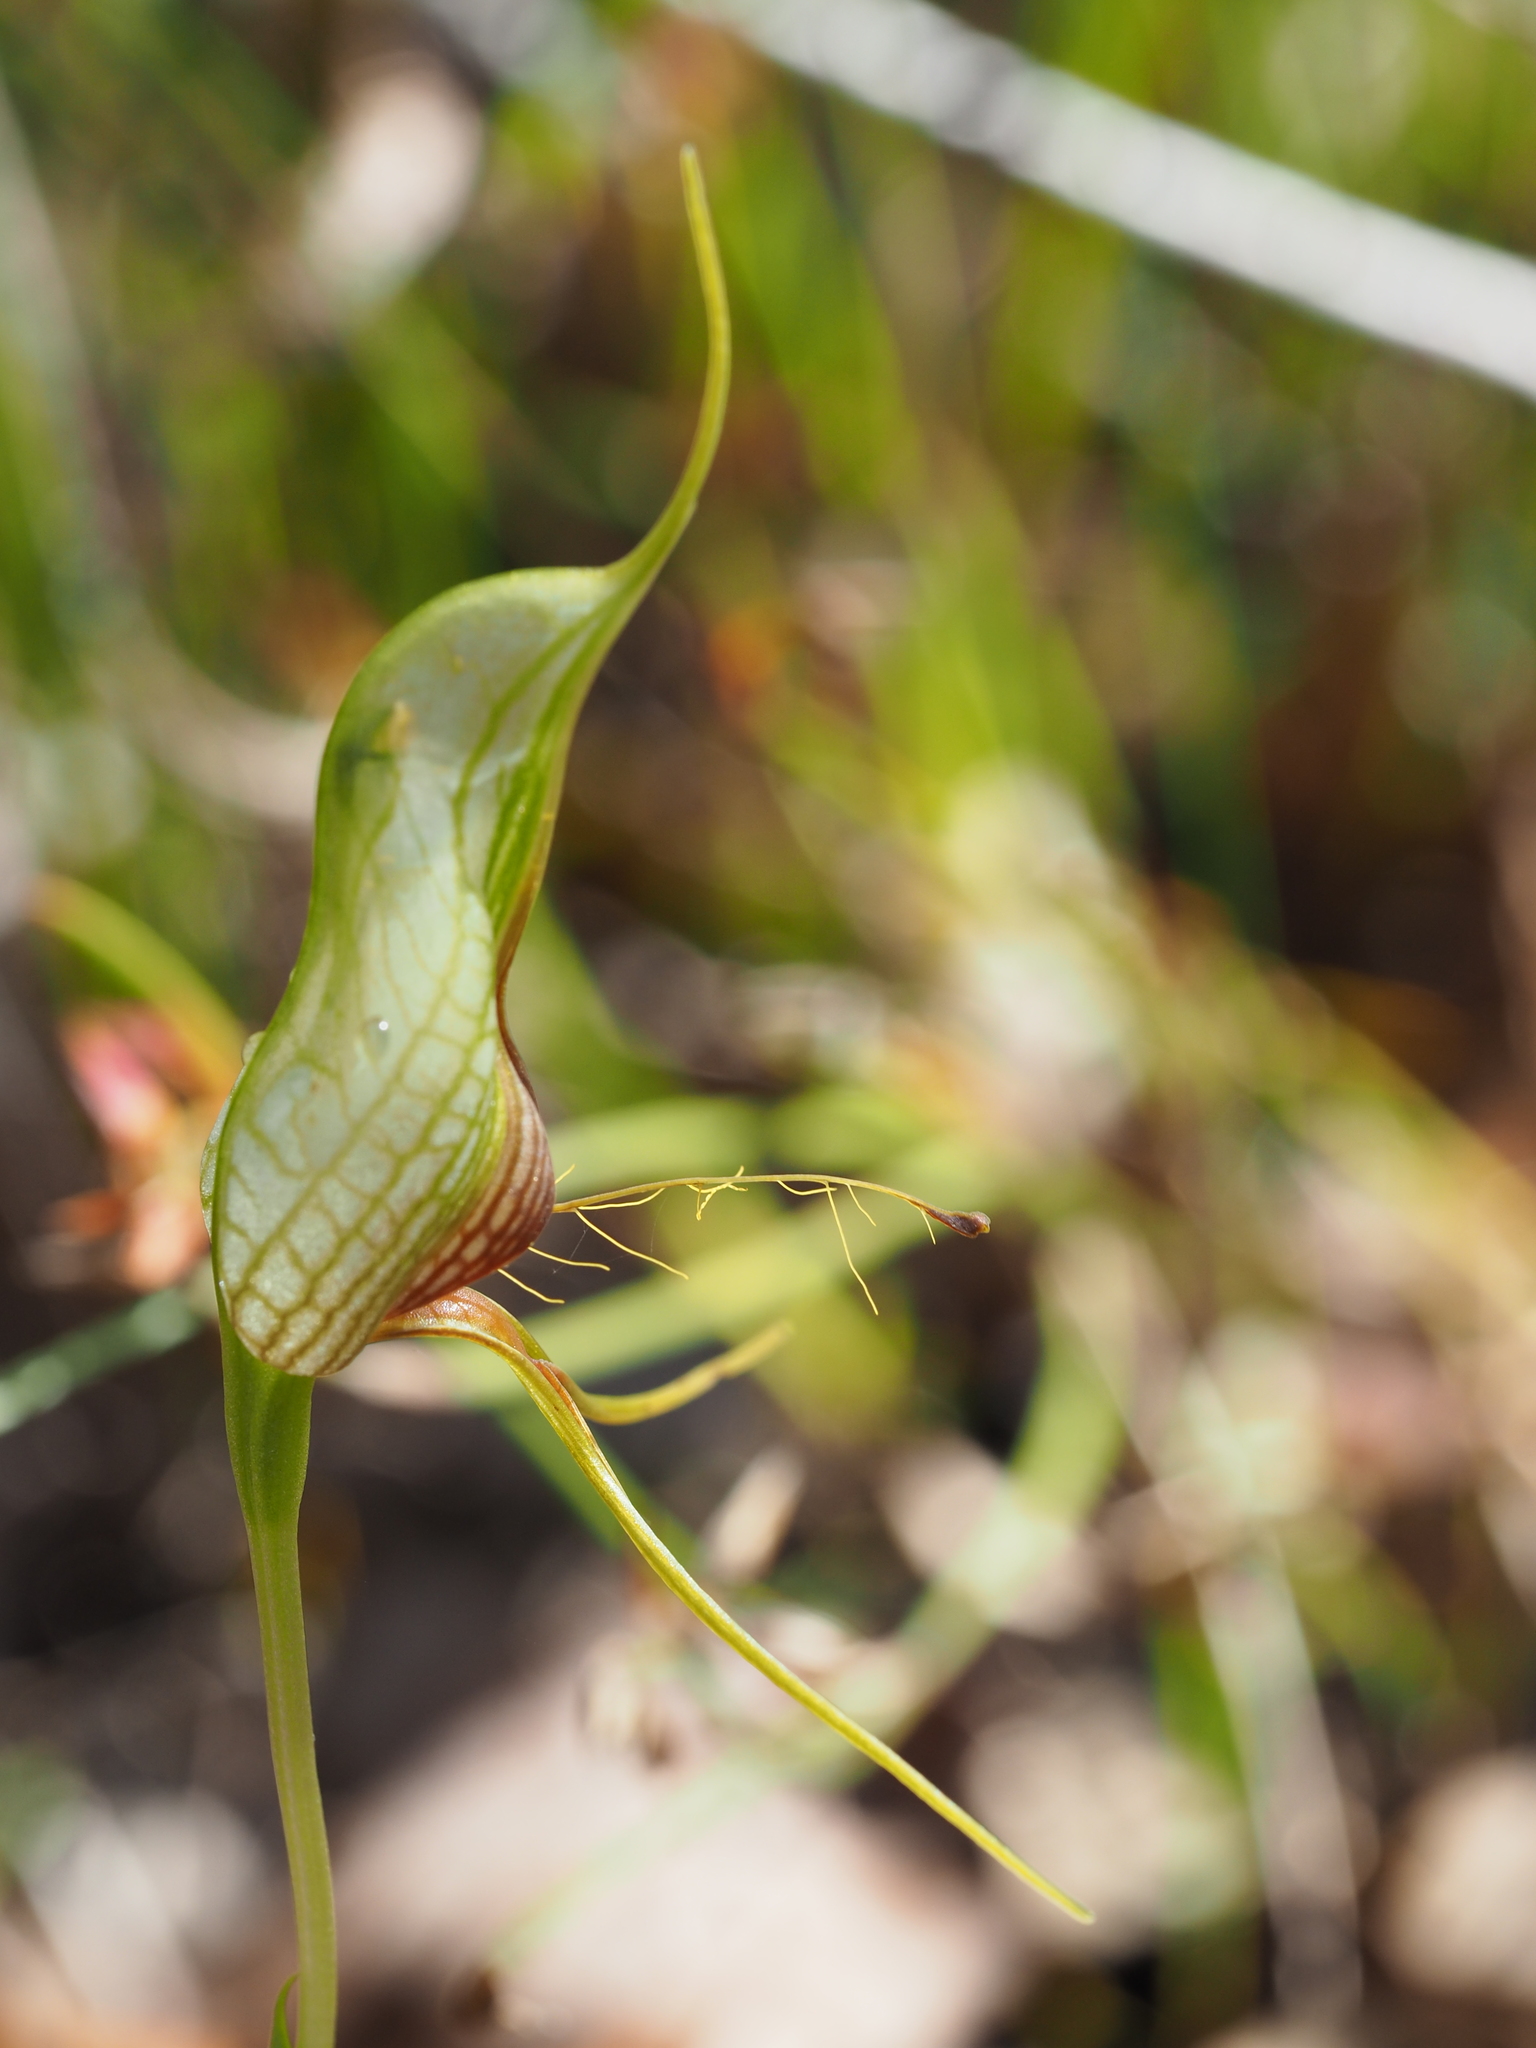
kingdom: Plantae
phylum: Tracheophyta
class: Liliopsida
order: Asparagales
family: Orchidaceae
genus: Pterostylis
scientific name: Pterostylis barbata
